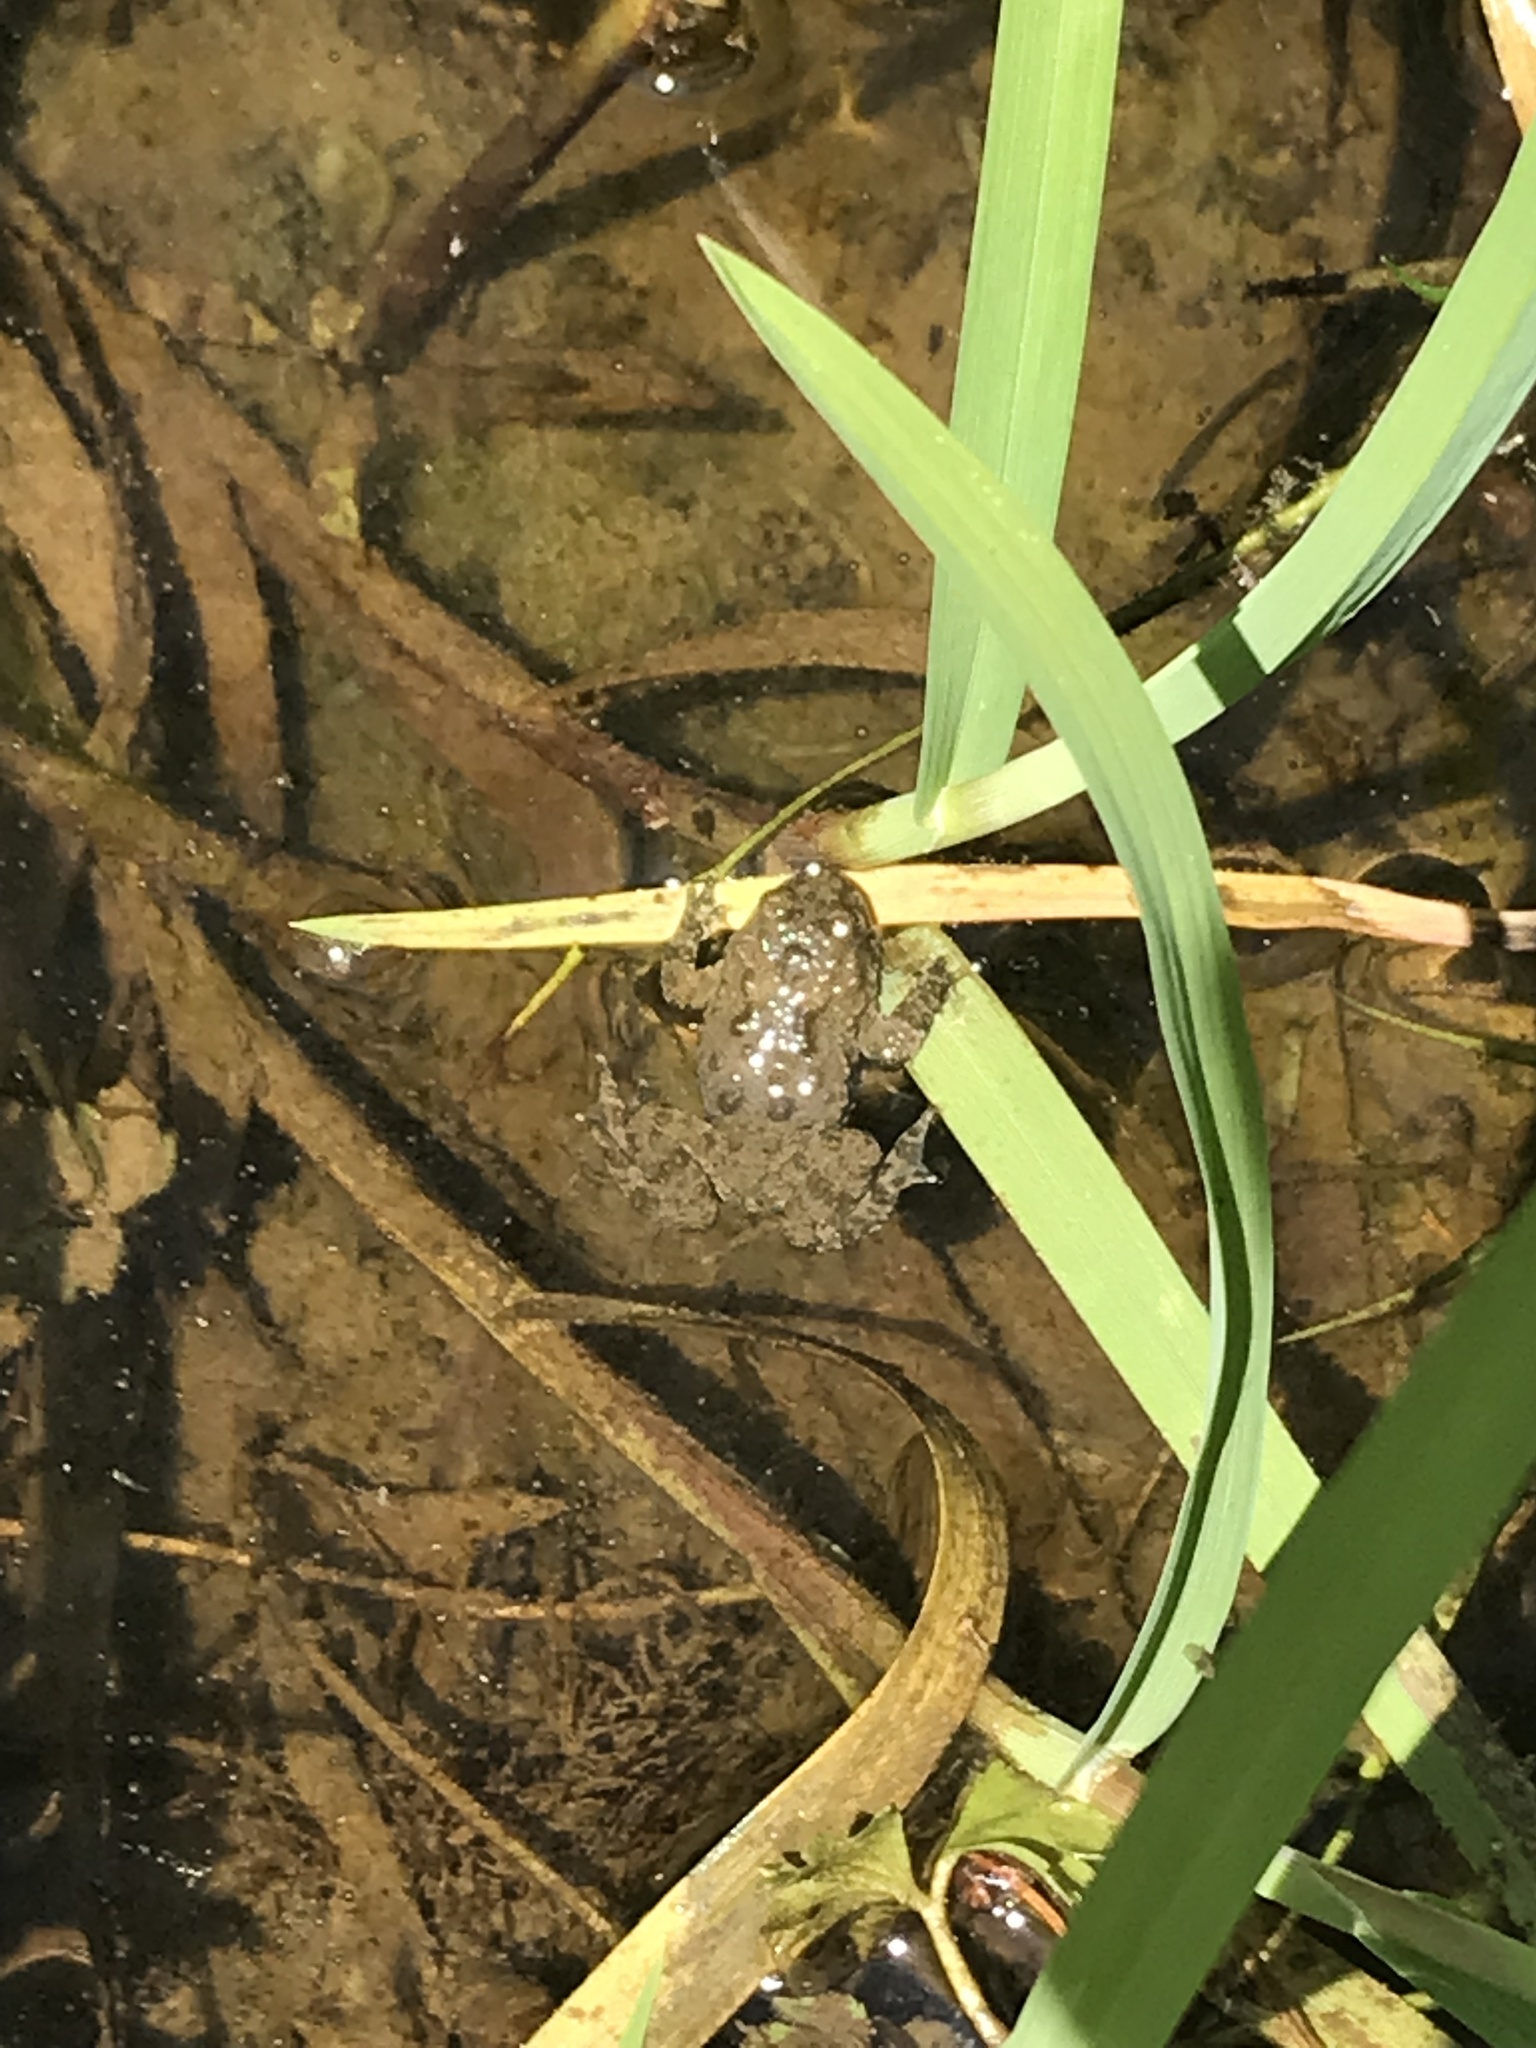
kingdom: Animalia
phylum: Chordata
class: Amphibia
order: Anura
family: Bombinatoridae
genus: Bombina
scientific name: Bombina variegata
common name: Yellow-bellied toad
